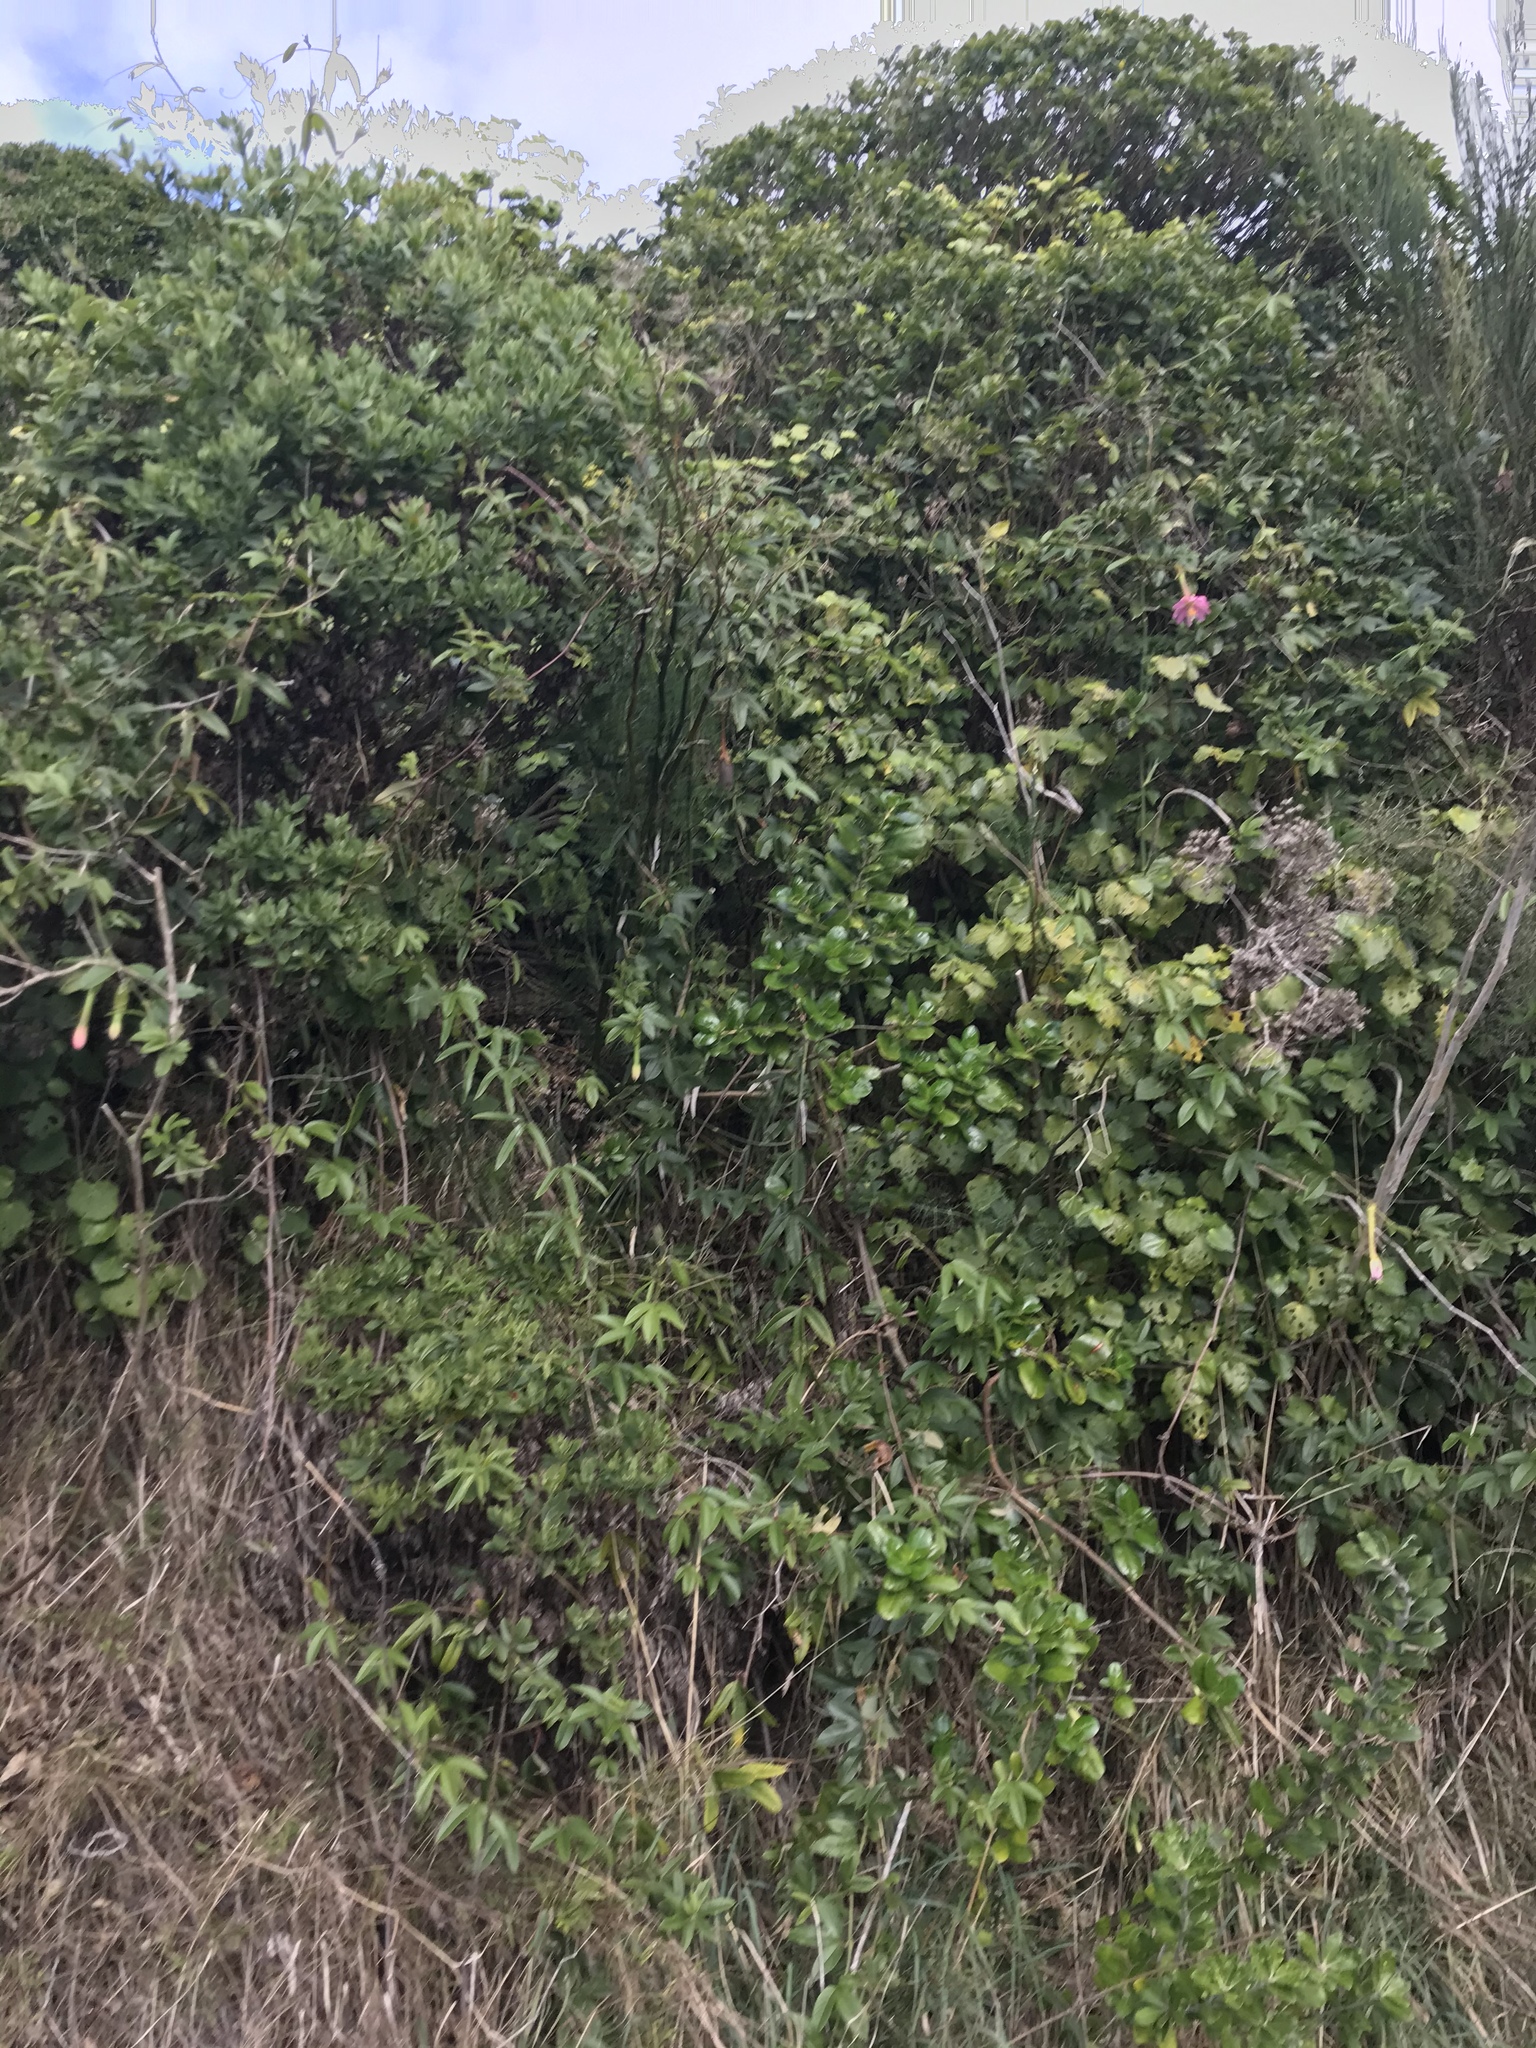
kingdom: Plantae
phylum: Tracheophyta
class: Magnoliopsida
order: Malpighiales
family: Passifloraceae
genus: Passiflora
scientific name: Passiflora tripartita
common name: Banana poka
